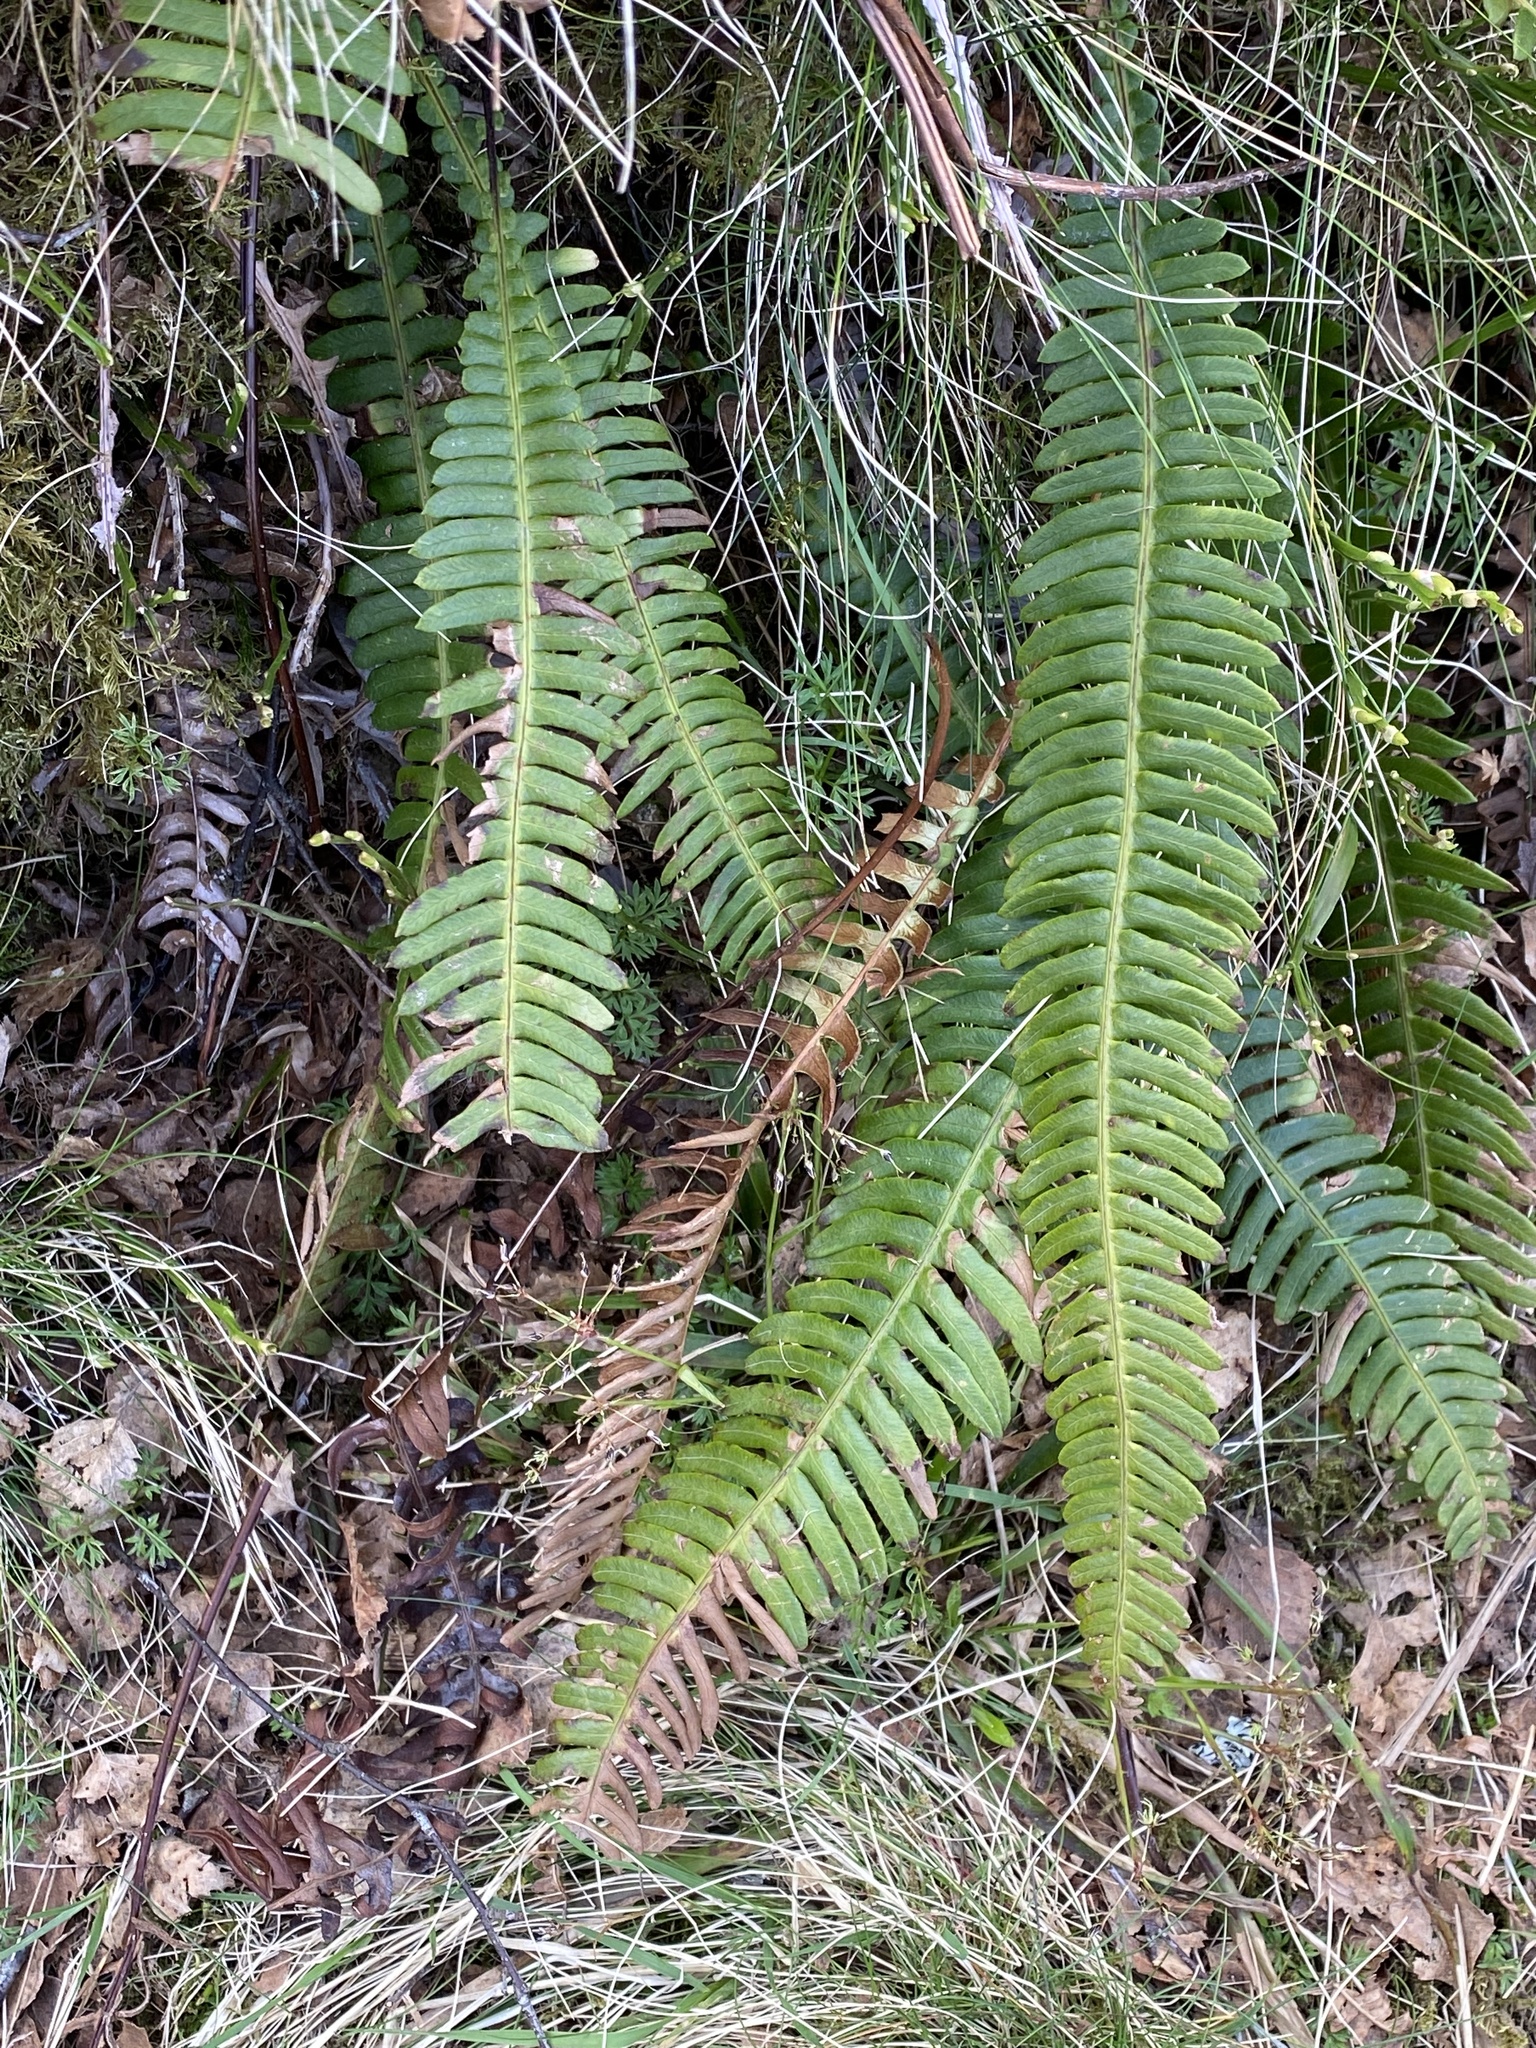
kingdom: Plantae
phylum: Tracheophyta
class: Polypodiopsida
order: Polypodiales
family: Blechnaceae
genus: Struthiopteris
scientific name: Struthiopteris spicant
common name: Deer fern
